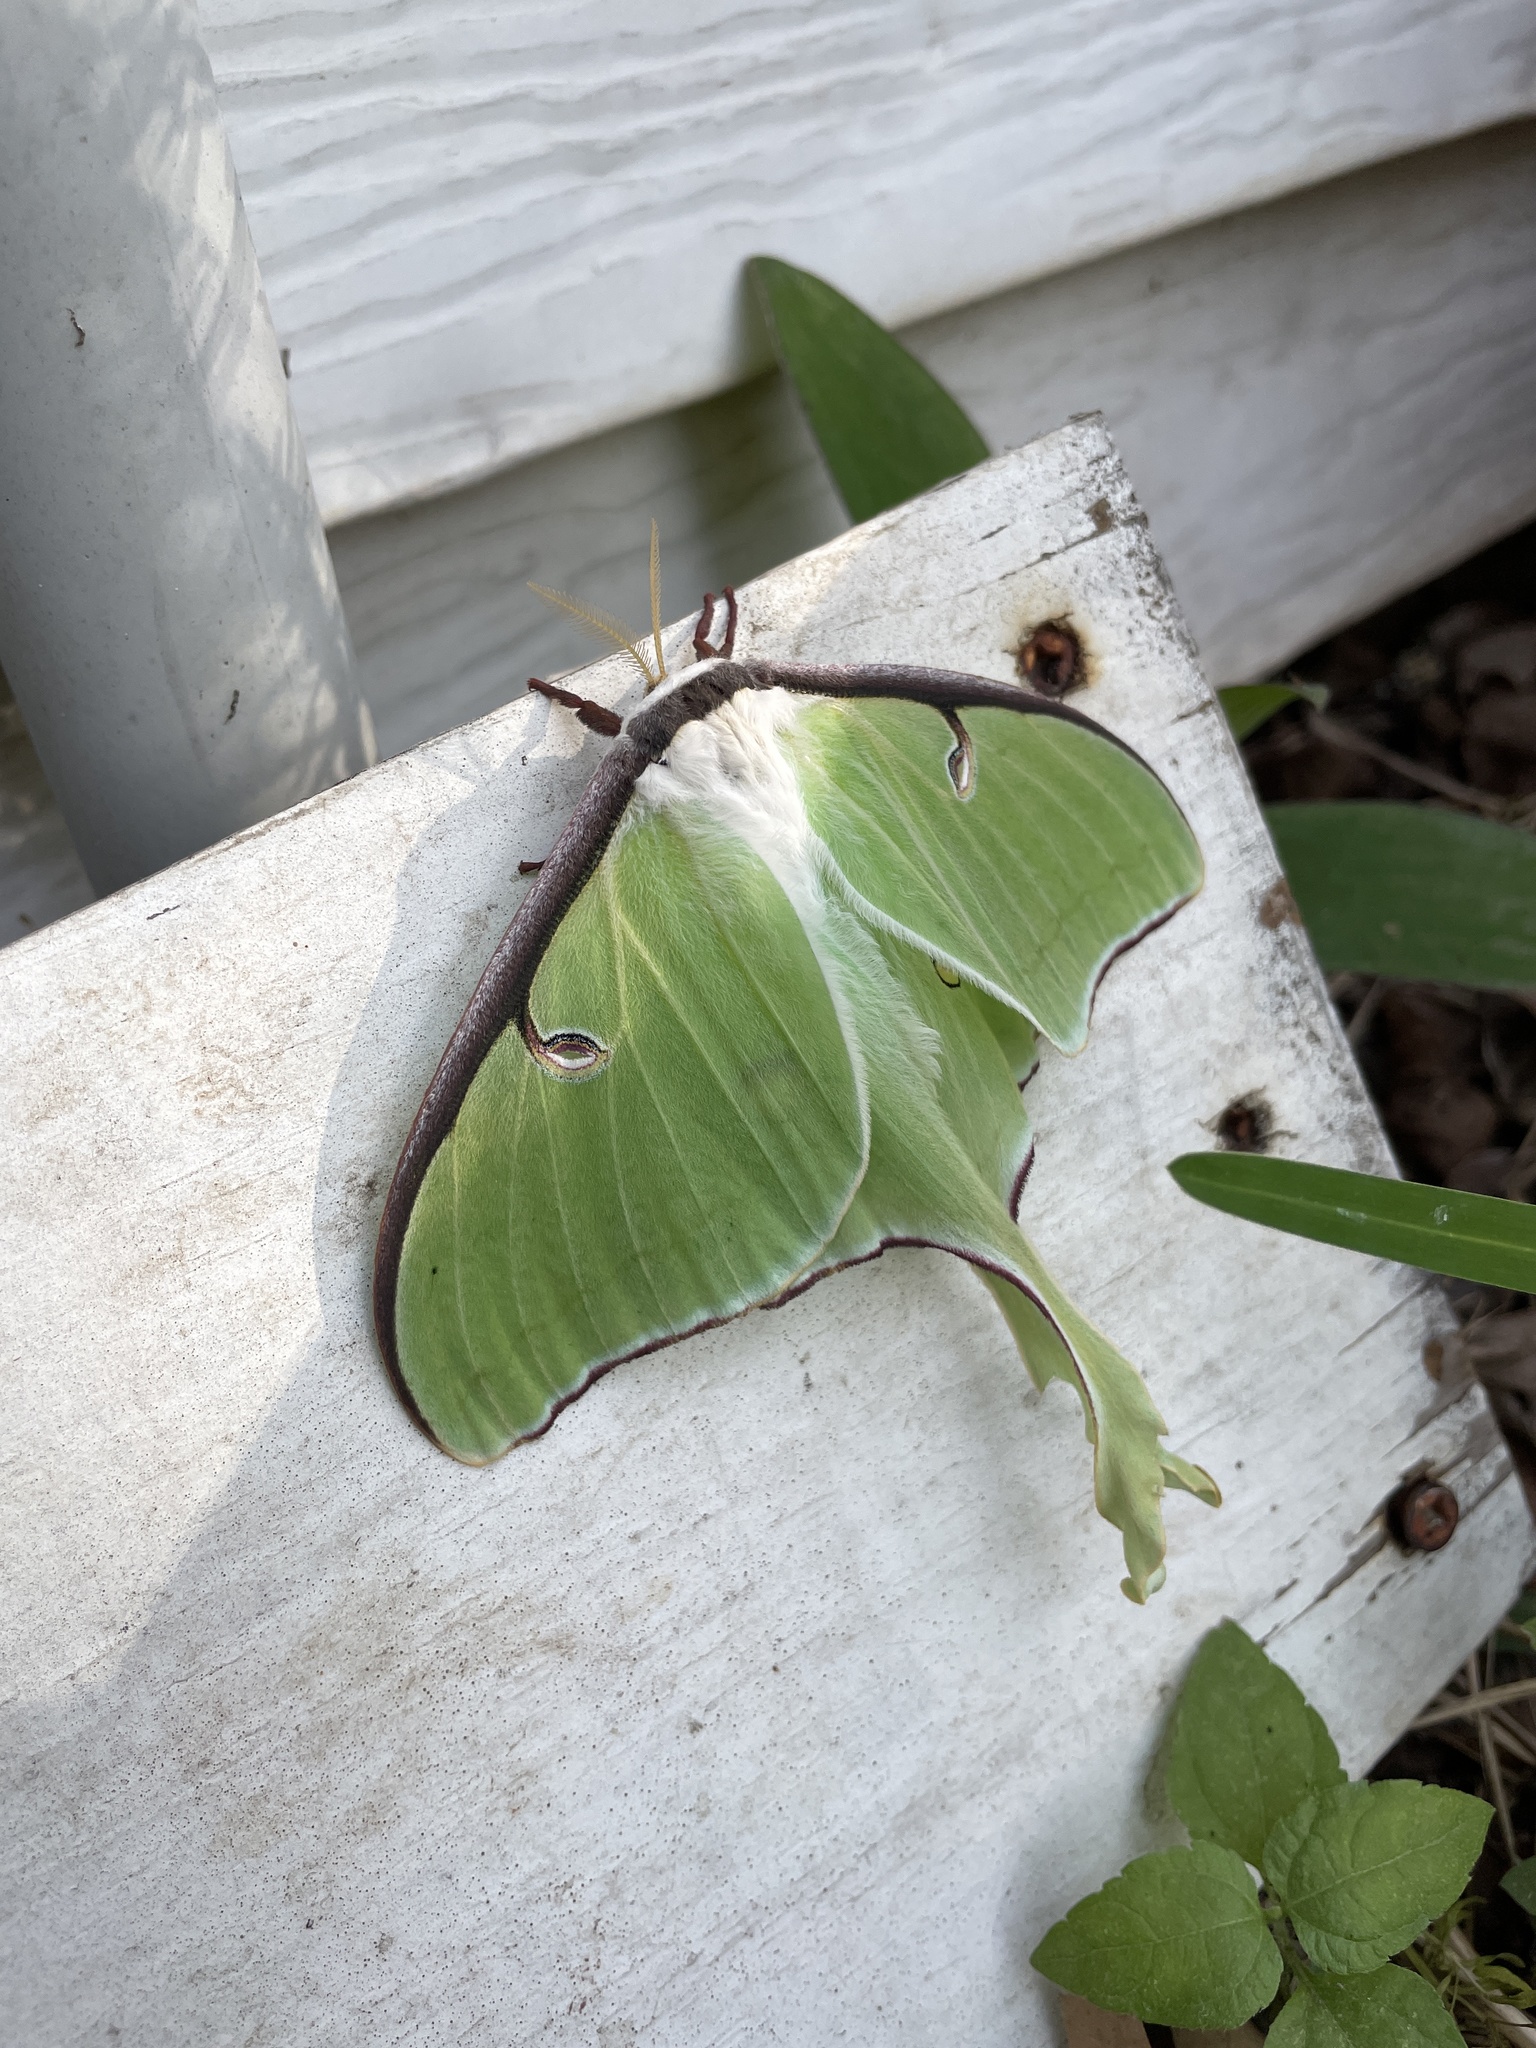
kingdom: Animalia
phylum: Arthropoda
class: Insecta
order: Lepidoptera
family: Saturniidae
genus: Actias
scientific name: Actias luna
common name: Luna moth
